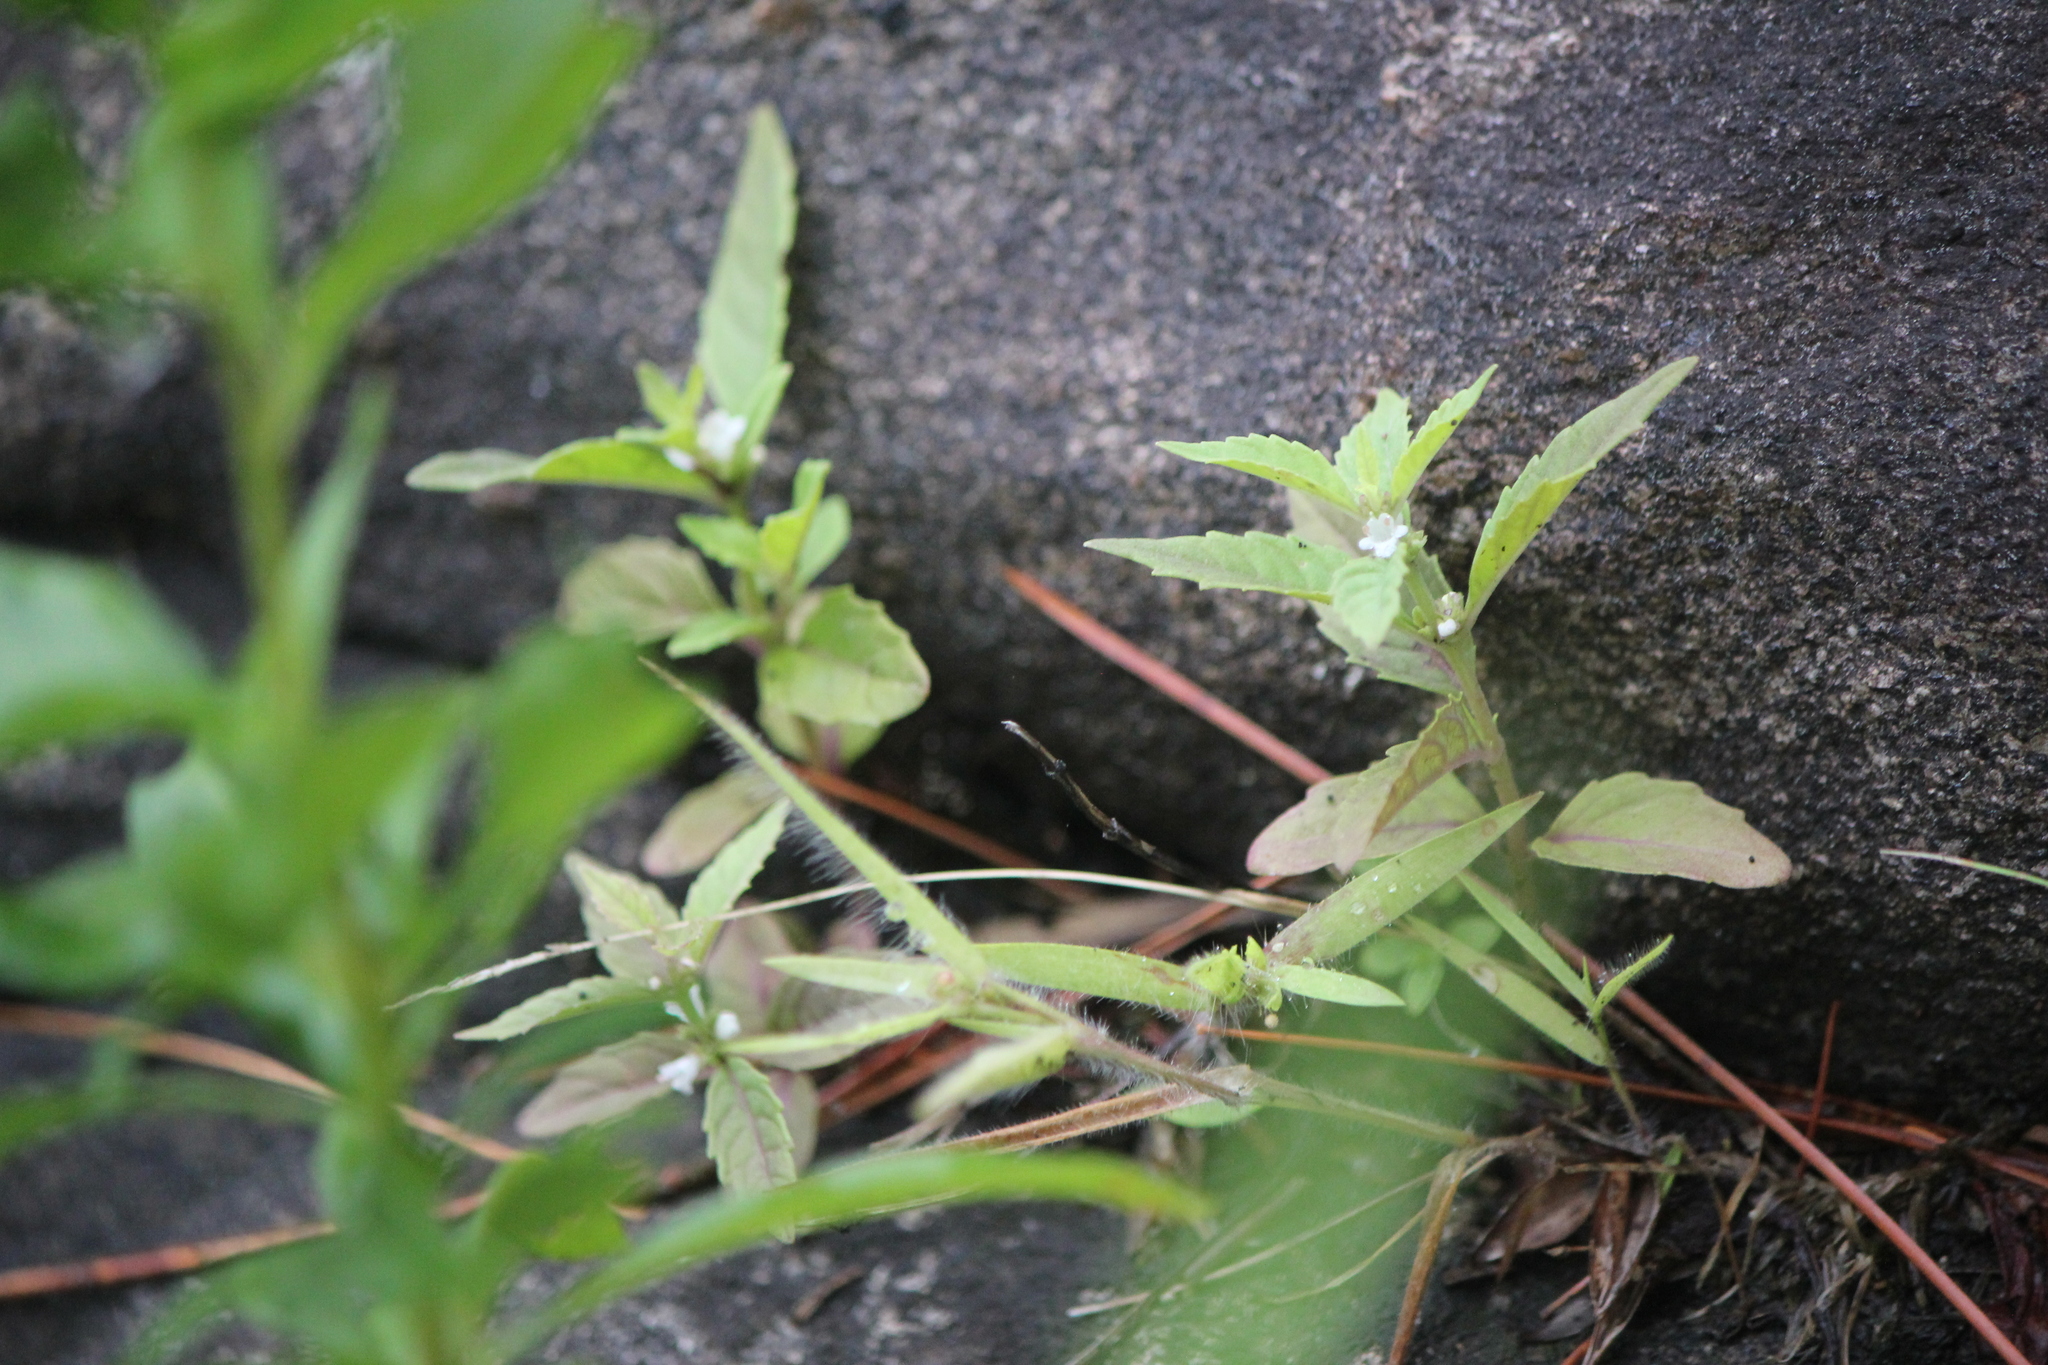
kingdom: Plantae
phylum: Tracheophyta
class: Magnoliopsida
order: Lamiales
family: Lamiaceae
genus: Lycopus
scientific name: Lycopus uniflorus
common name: Northern bugleweed
